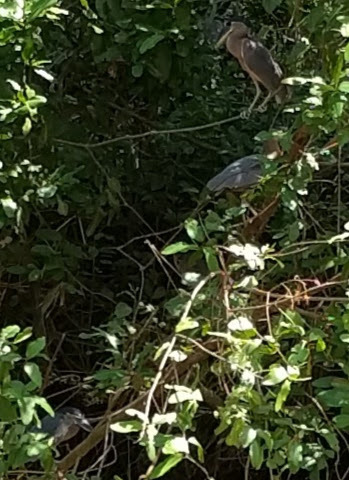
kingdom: Animalia
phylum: Chordata
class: Aves
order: Pelecaniformes
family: Ardeidae
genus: Cochlearius
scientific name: Cochlearius cochlearius
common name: Boat-billed heron
